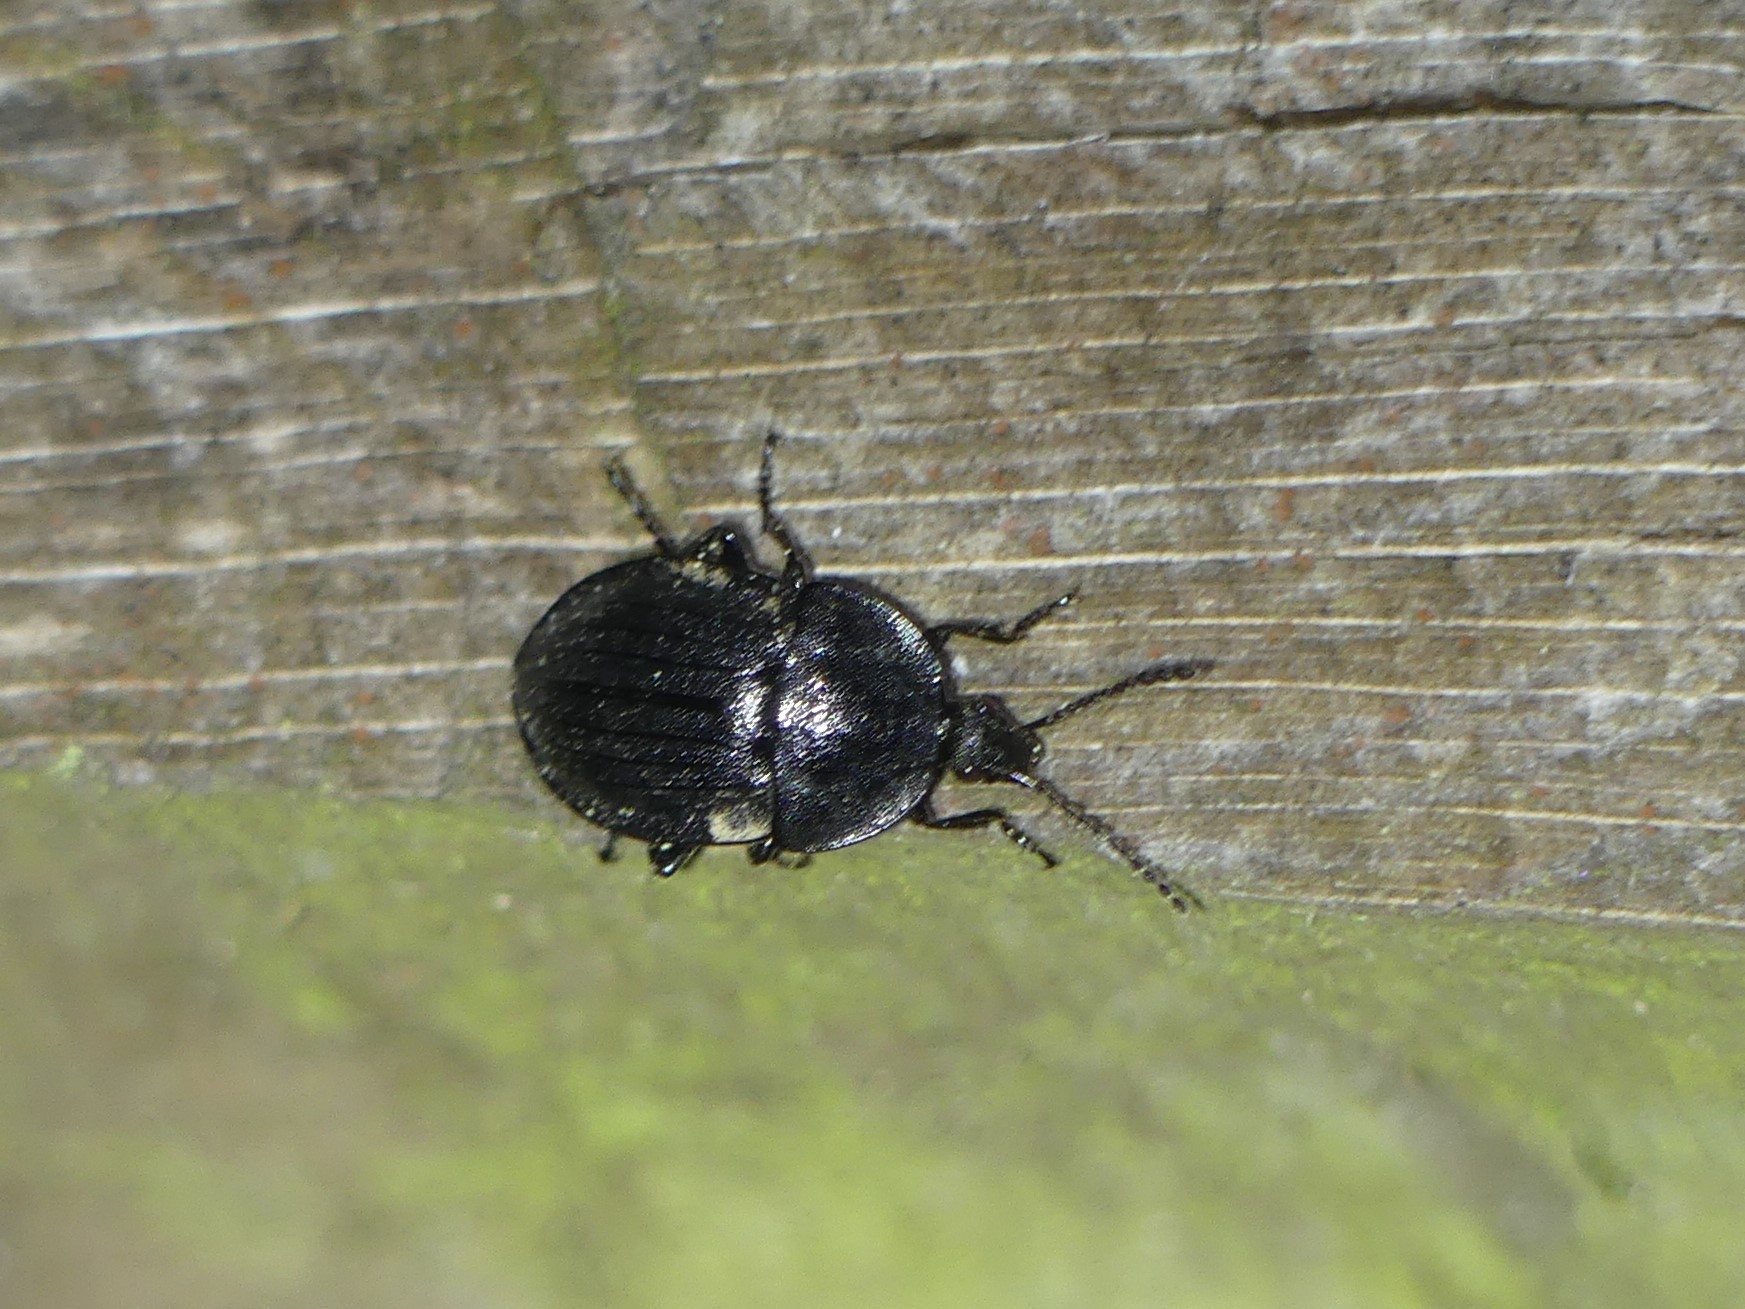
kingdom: Animalia
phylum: Arthropoda
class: Insecta
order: Coleoptera
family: Staphylinidae
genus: Silpha
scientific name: Silpha atrata
